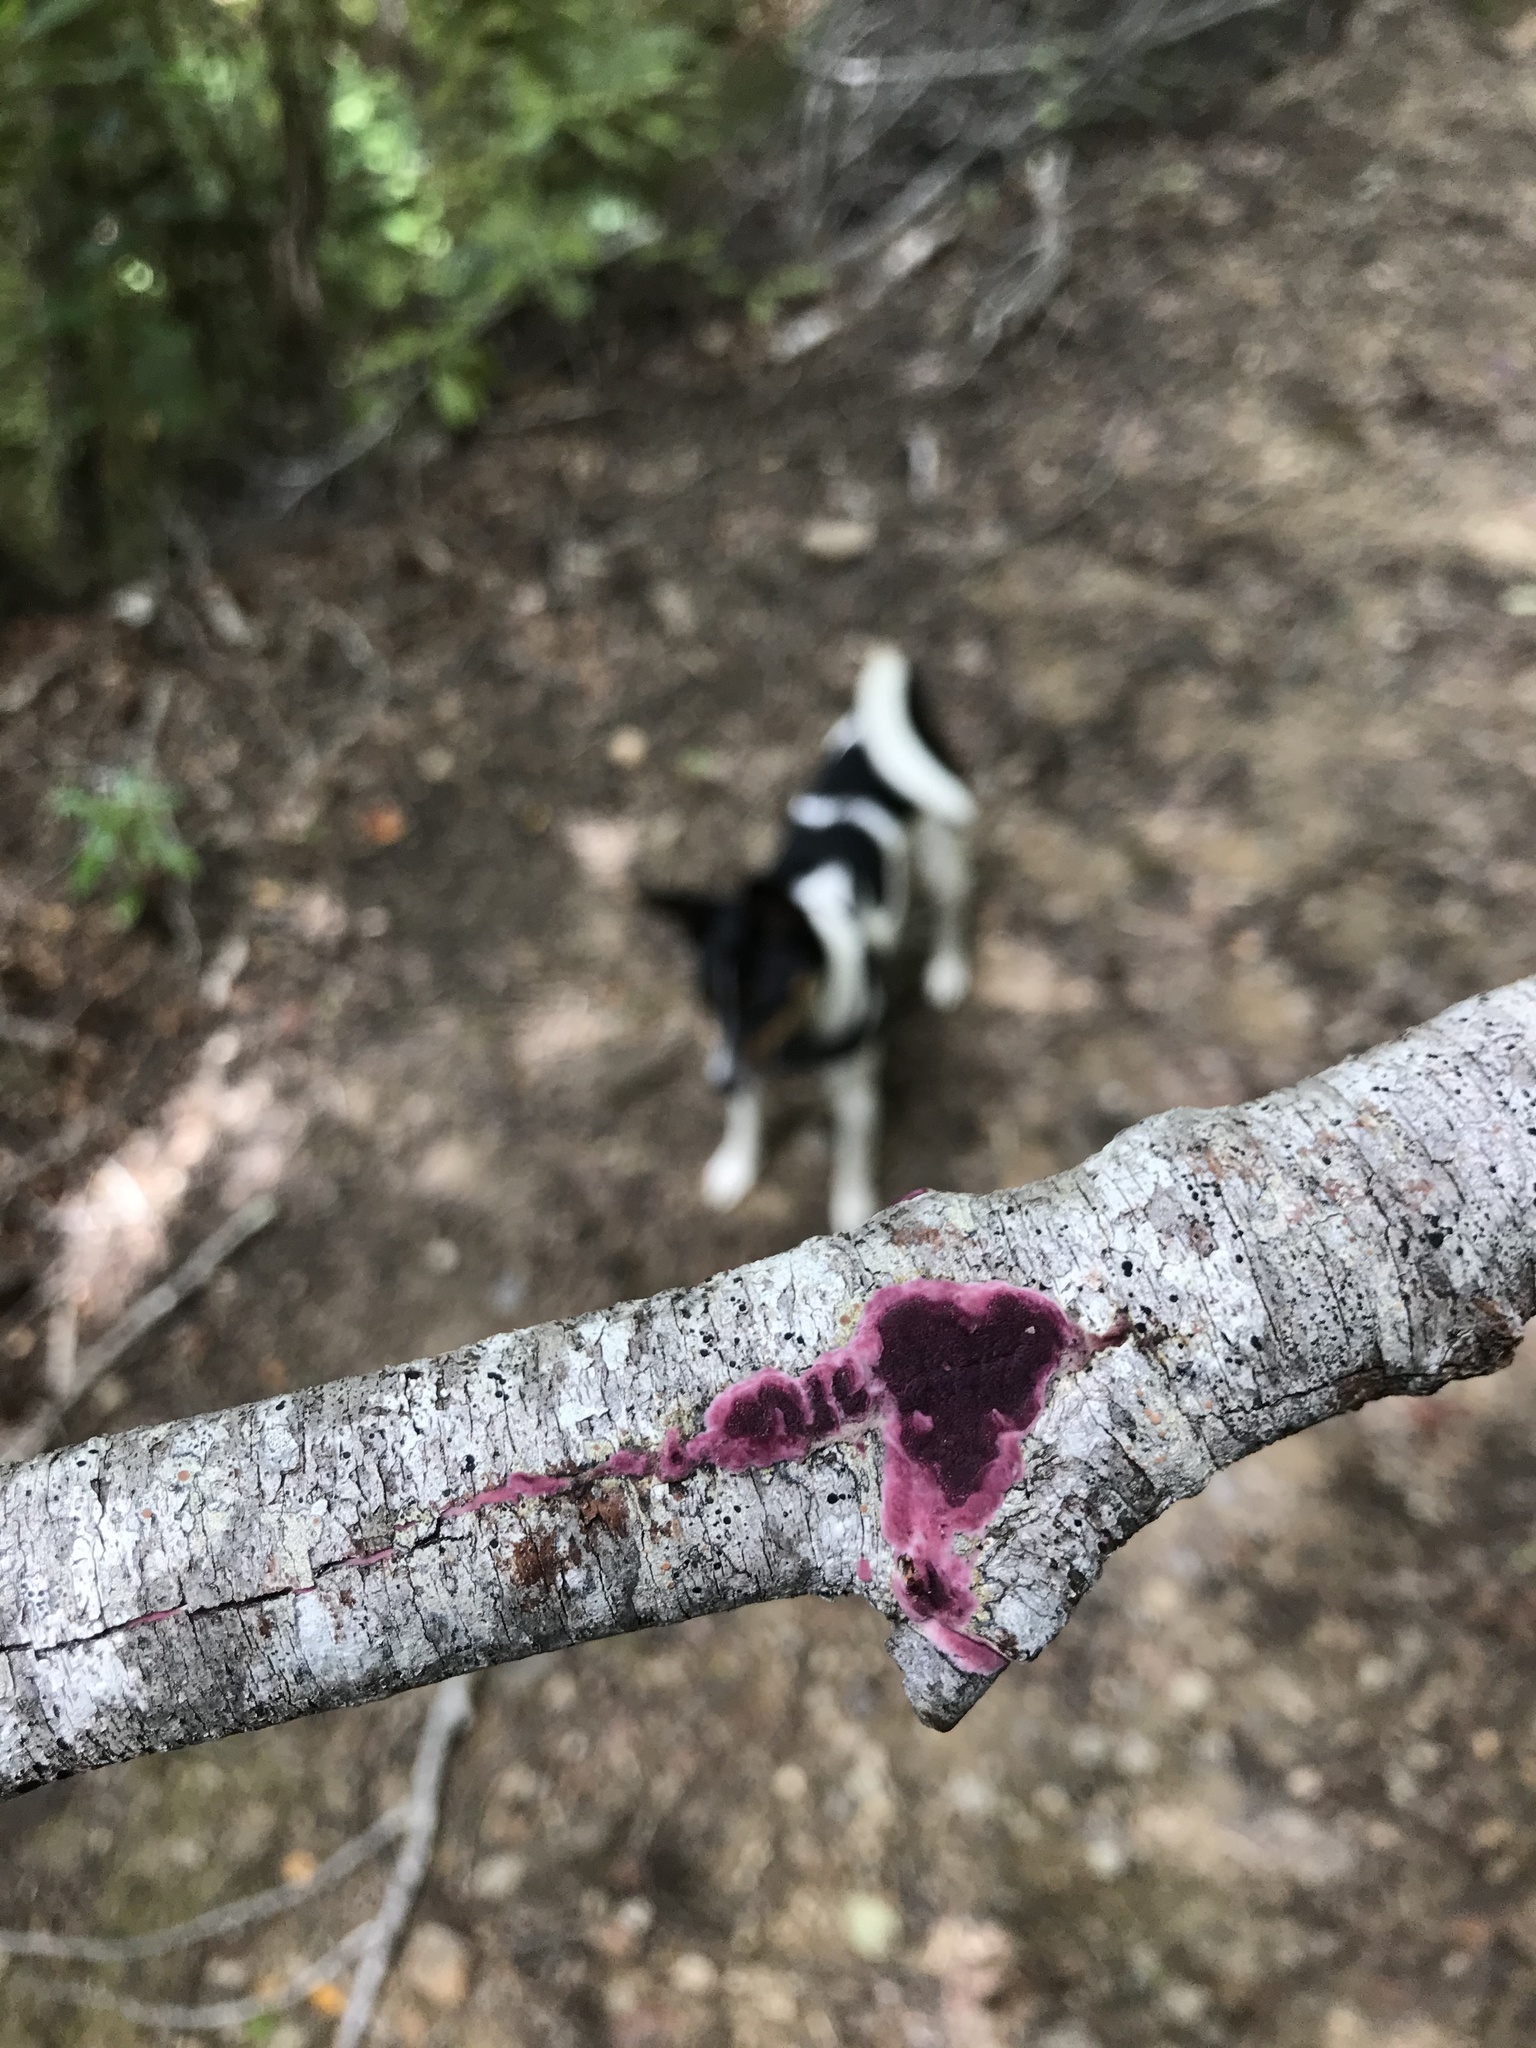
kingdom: Fungi
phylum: Basidiomycota
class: Agaricomycetes
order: Polyporales
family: Irpicaceae
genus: Byssomerulius
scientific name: Byssomerulius psittacinus
